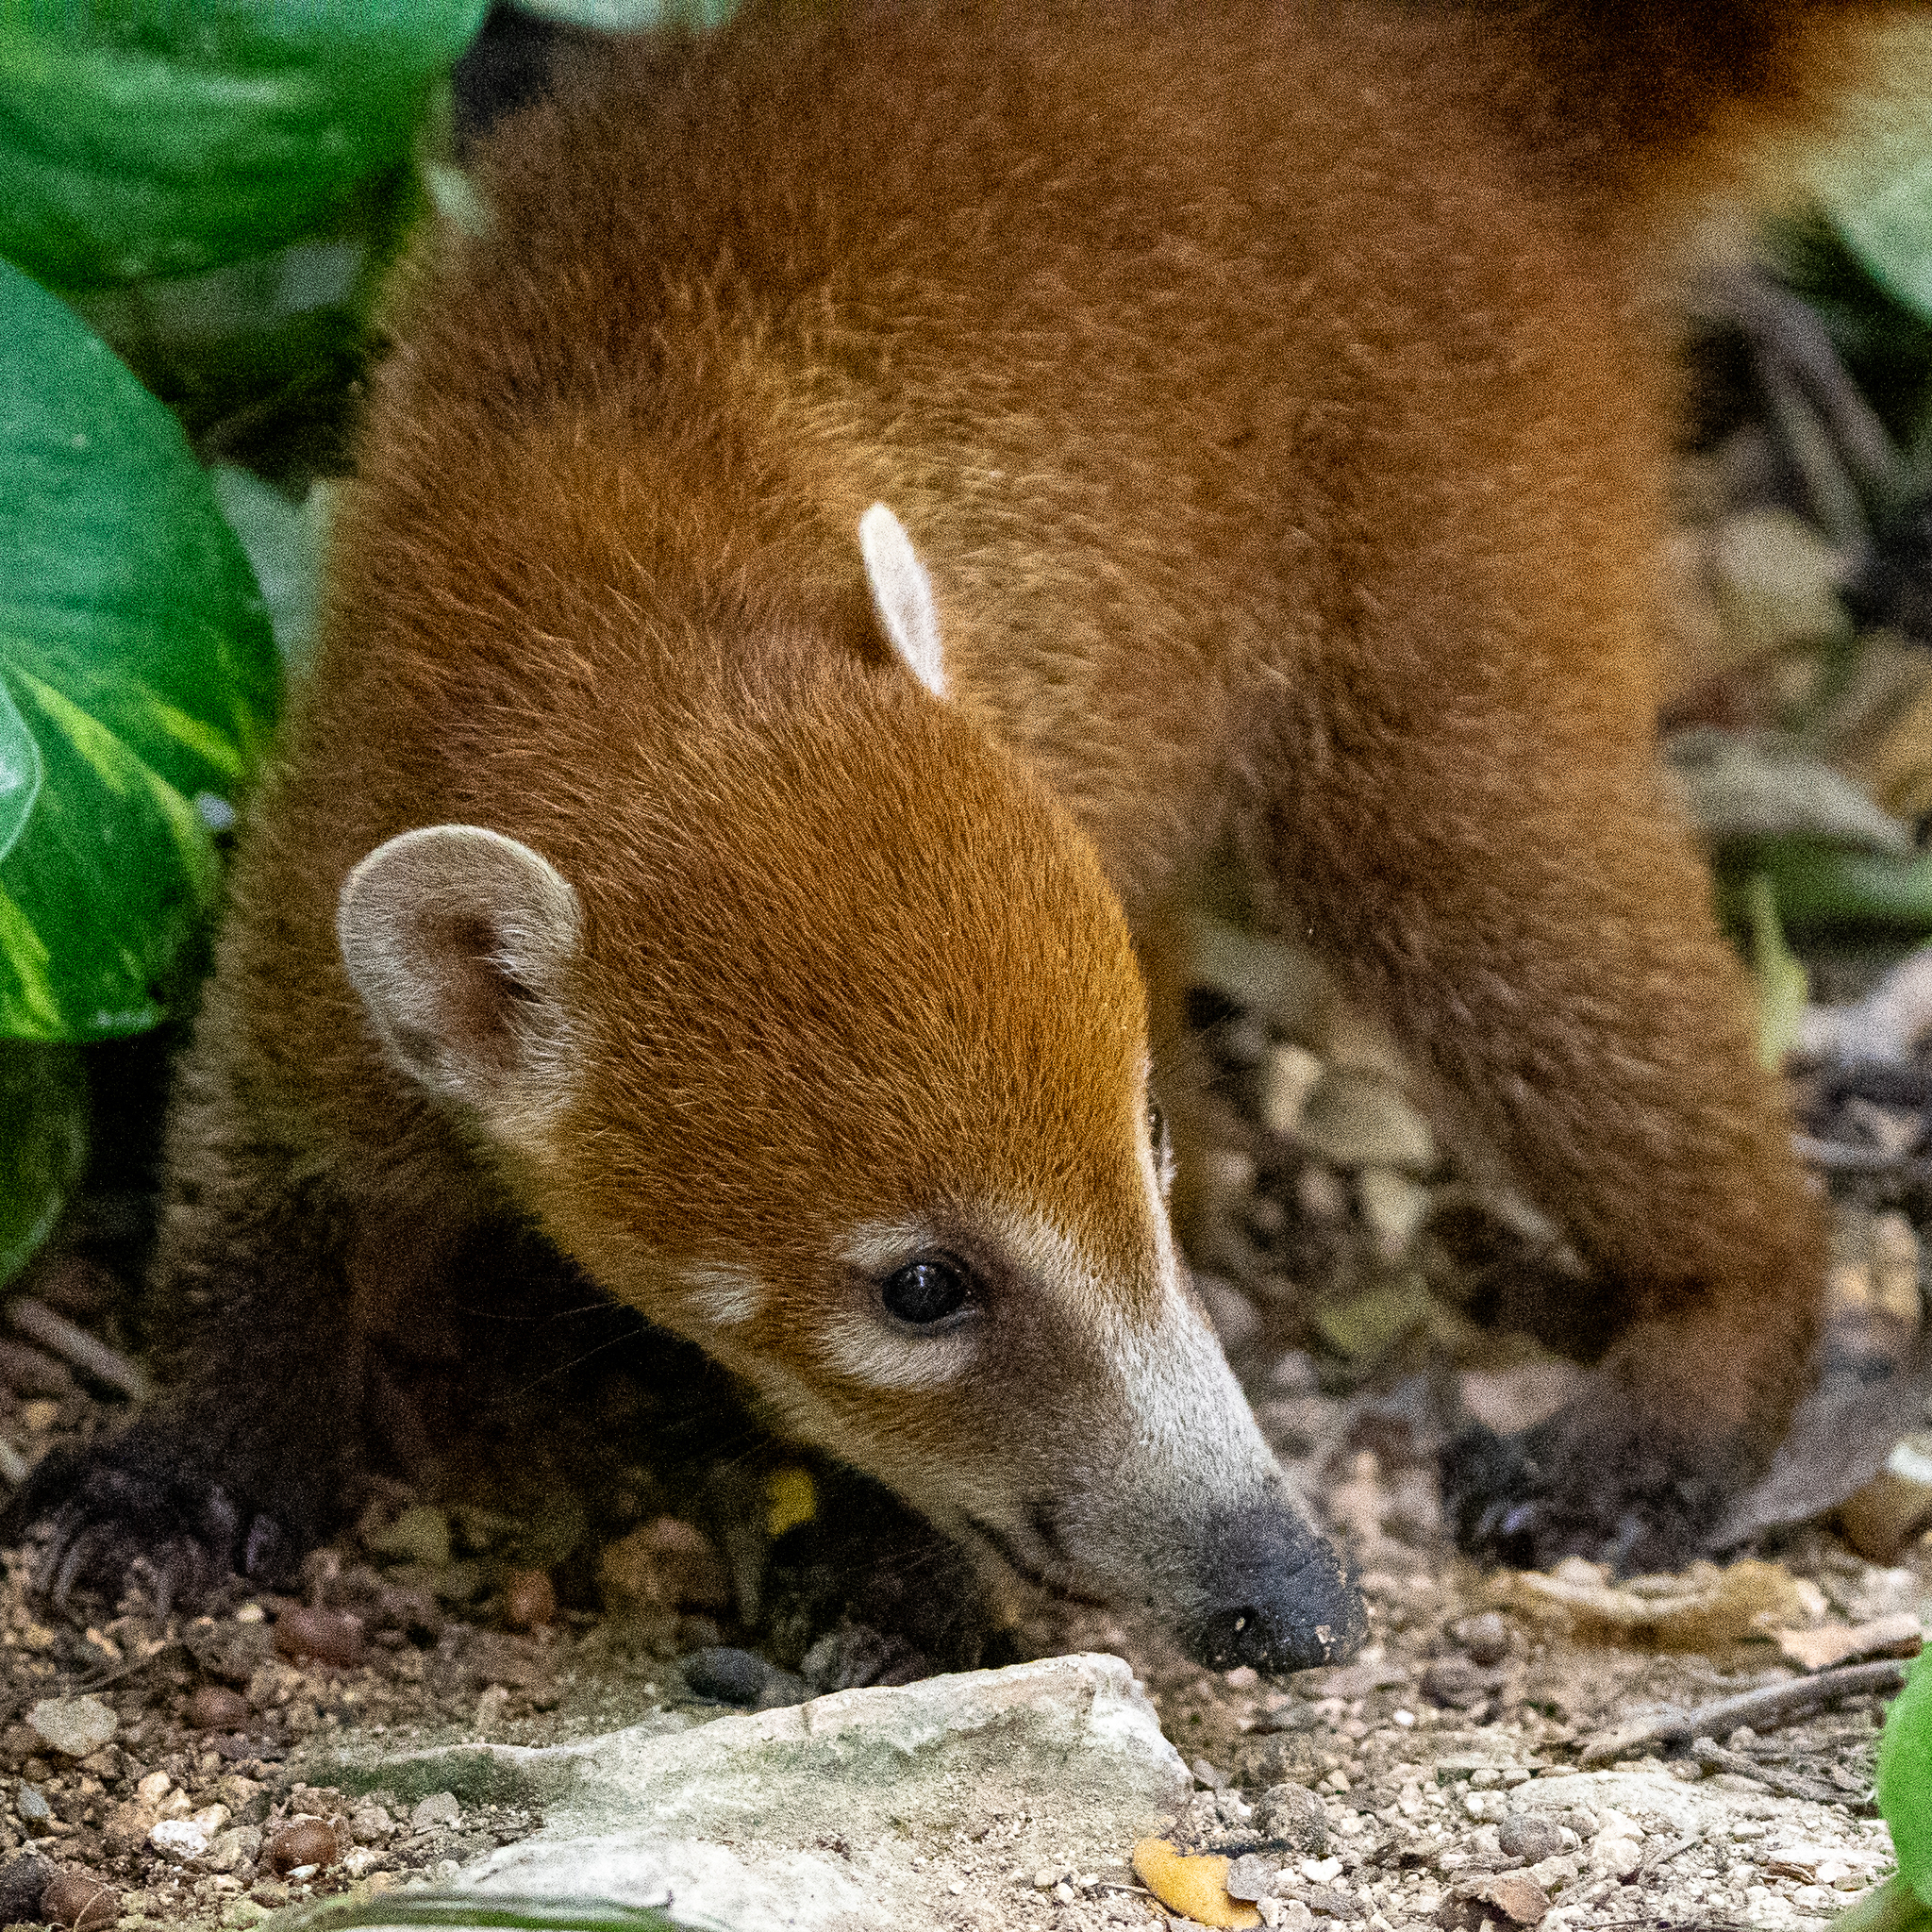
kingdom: Animalia
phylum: Chordata
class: Mammalia
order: Carnivora
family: Procyonidae
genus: Nasua
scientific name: Nasua narica
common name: White-nosed coati
